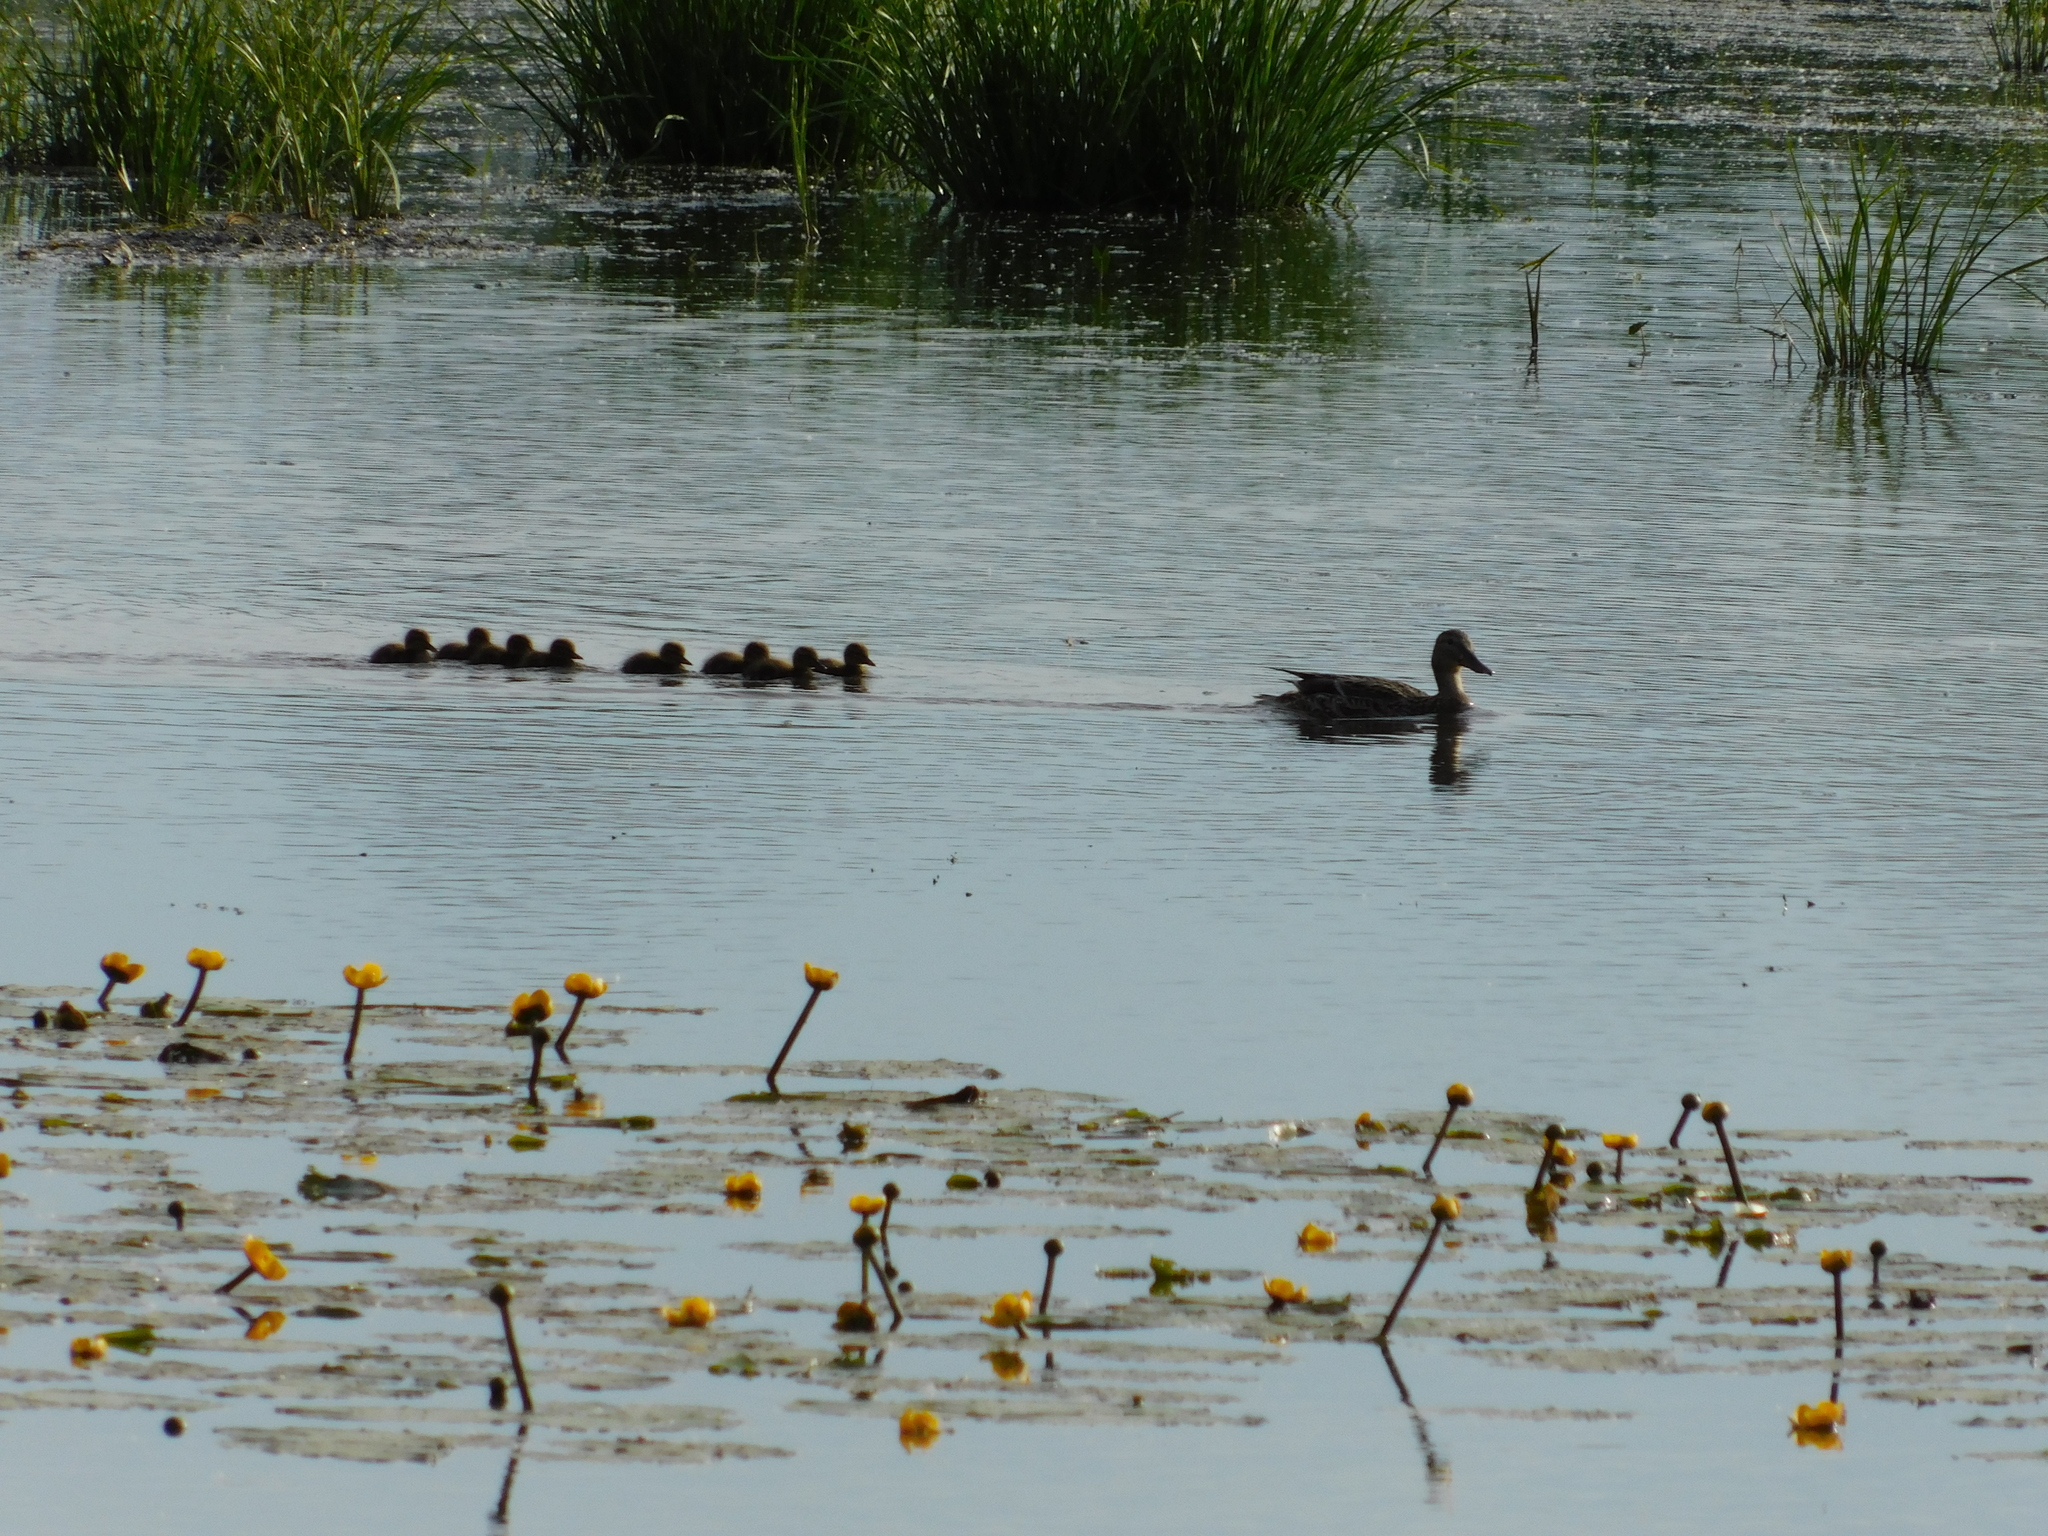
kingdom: Animalia
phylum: Chordata
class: Aves
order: Anseriformes
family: Anatidae
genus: Anas
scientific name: Anas platyrhynchos
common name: Mallard
